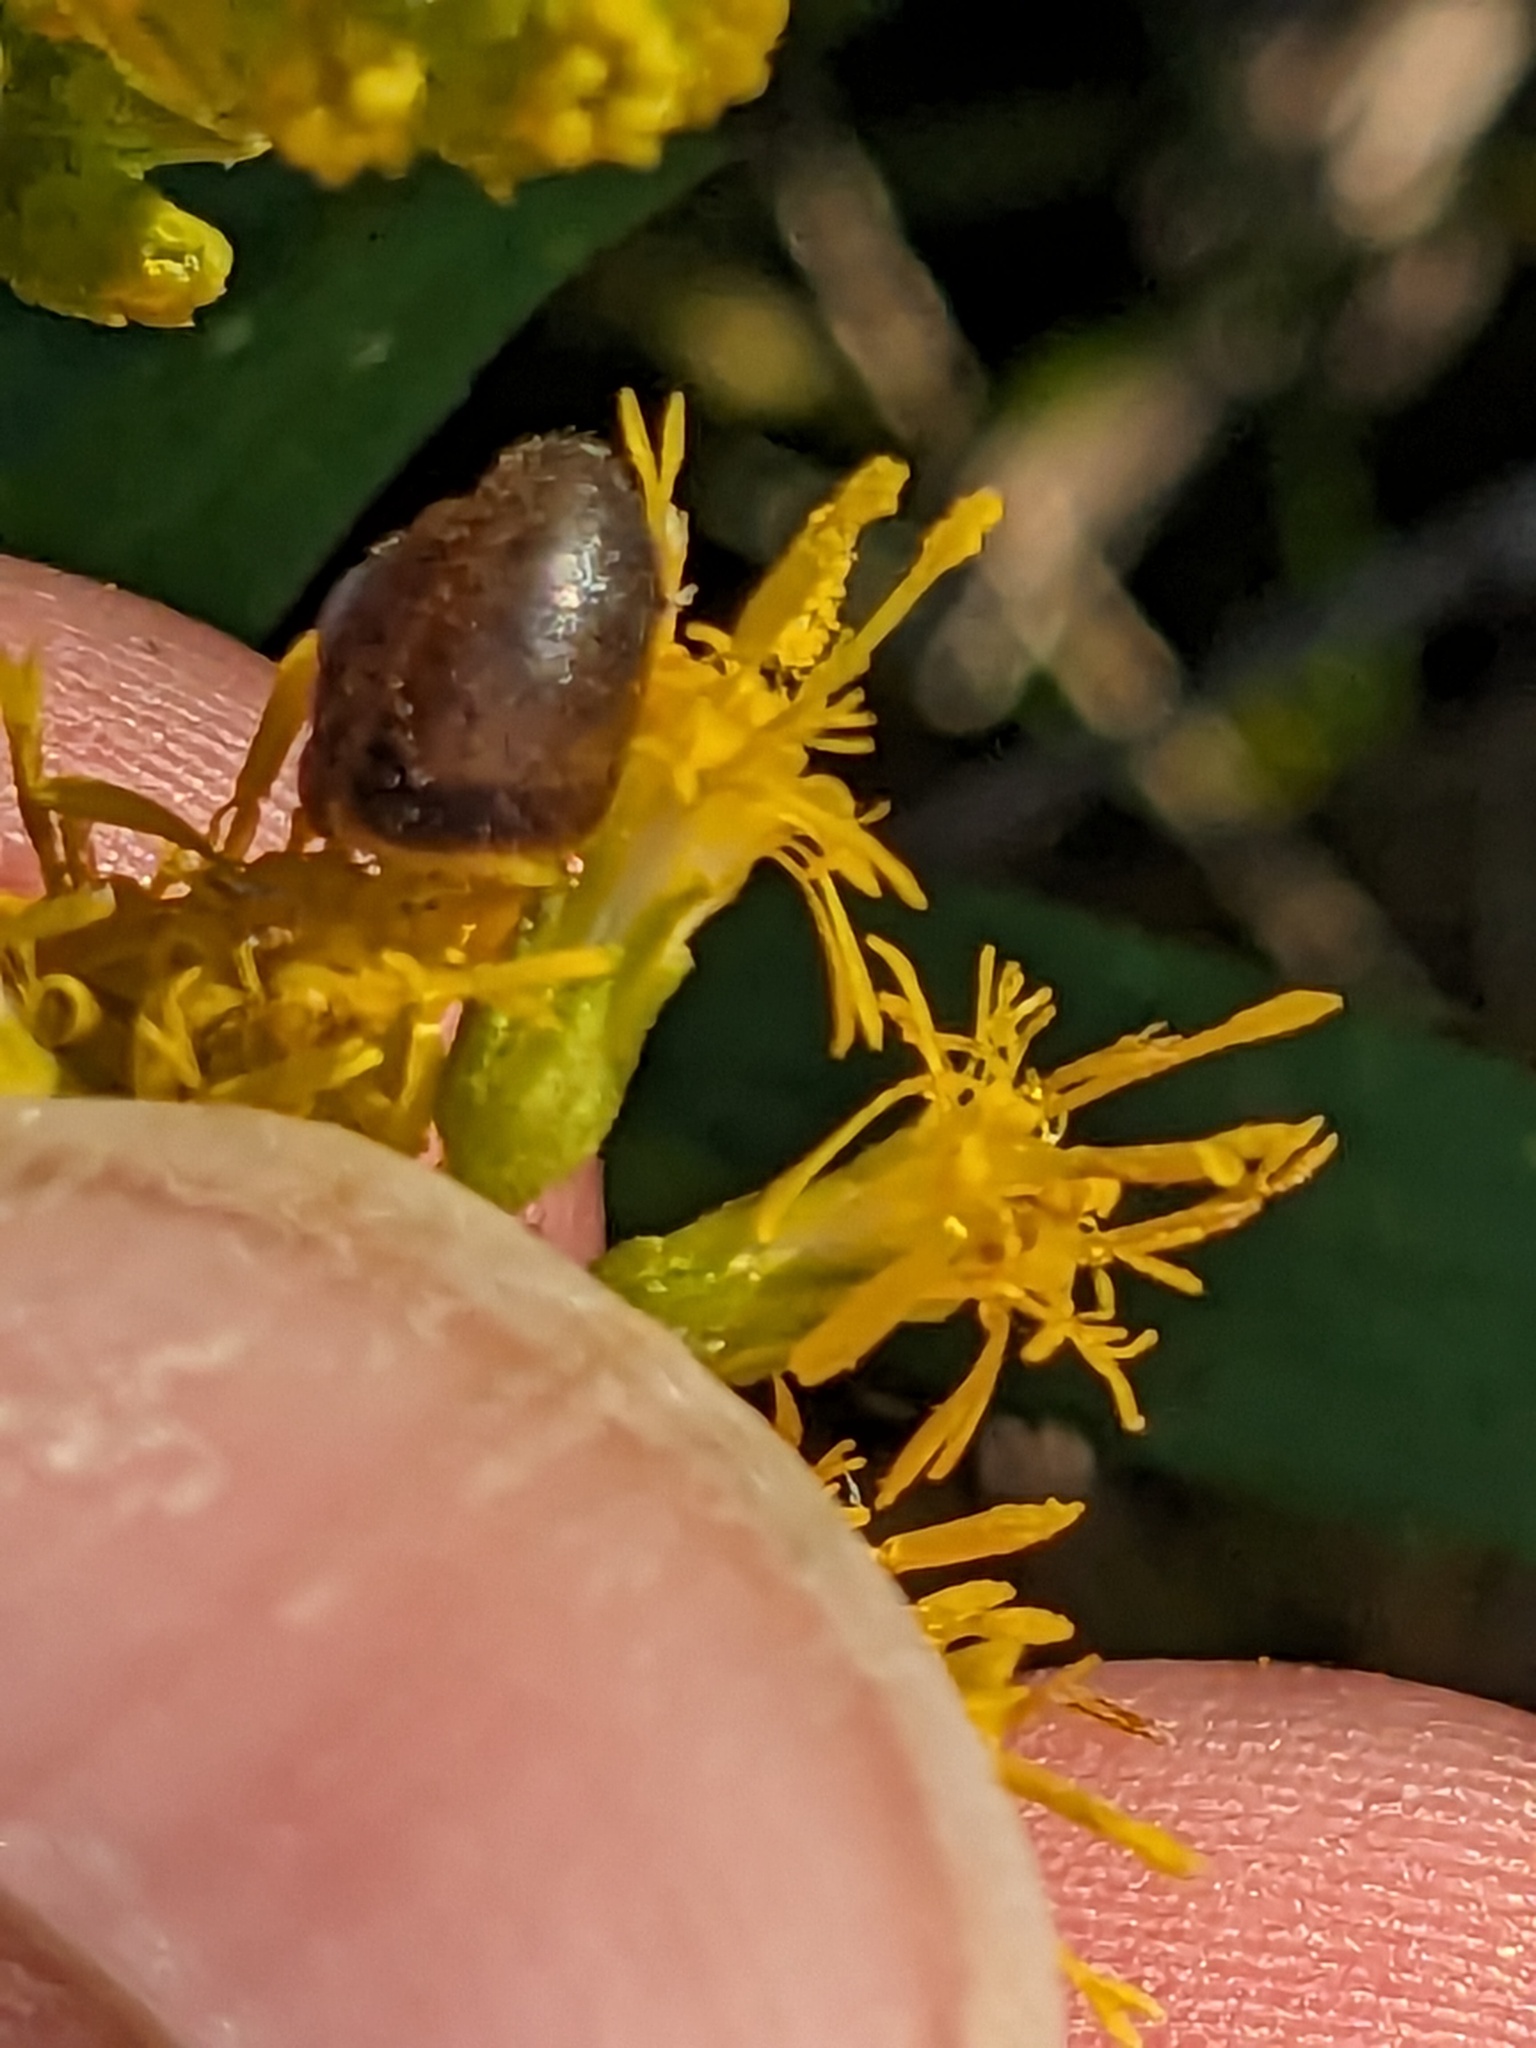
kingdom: Animalia
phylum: Mollusca
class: Gastropoda
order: Stylommatophora
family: Hygromiidae
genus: Trochulus
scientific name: Trochulus hispidus
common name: Hairy snail
